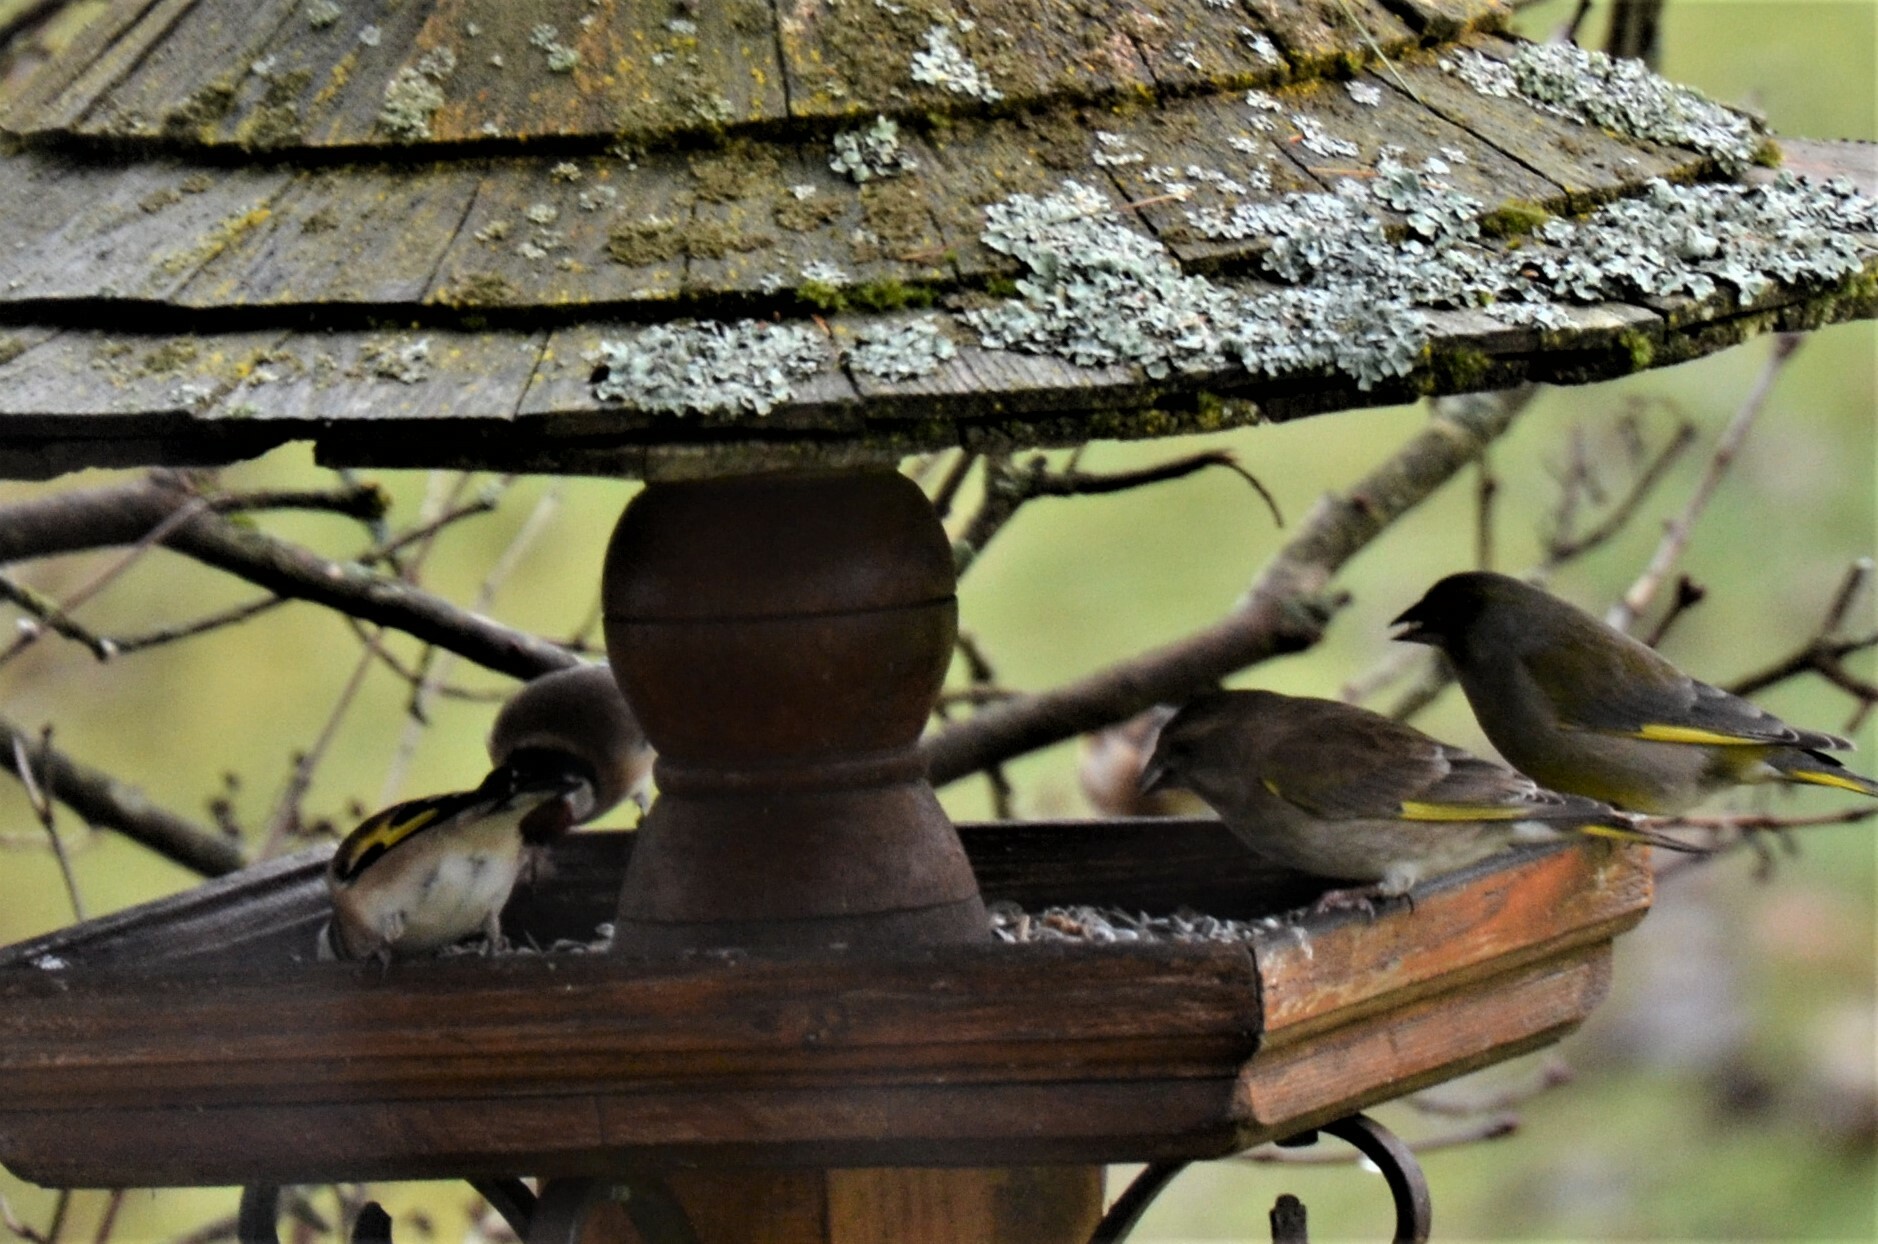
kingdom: Plantae
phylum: Tracheophyta
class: Liliopsida
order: Poales
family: Poaceae
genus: Chloris
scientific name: Chloris chloris
